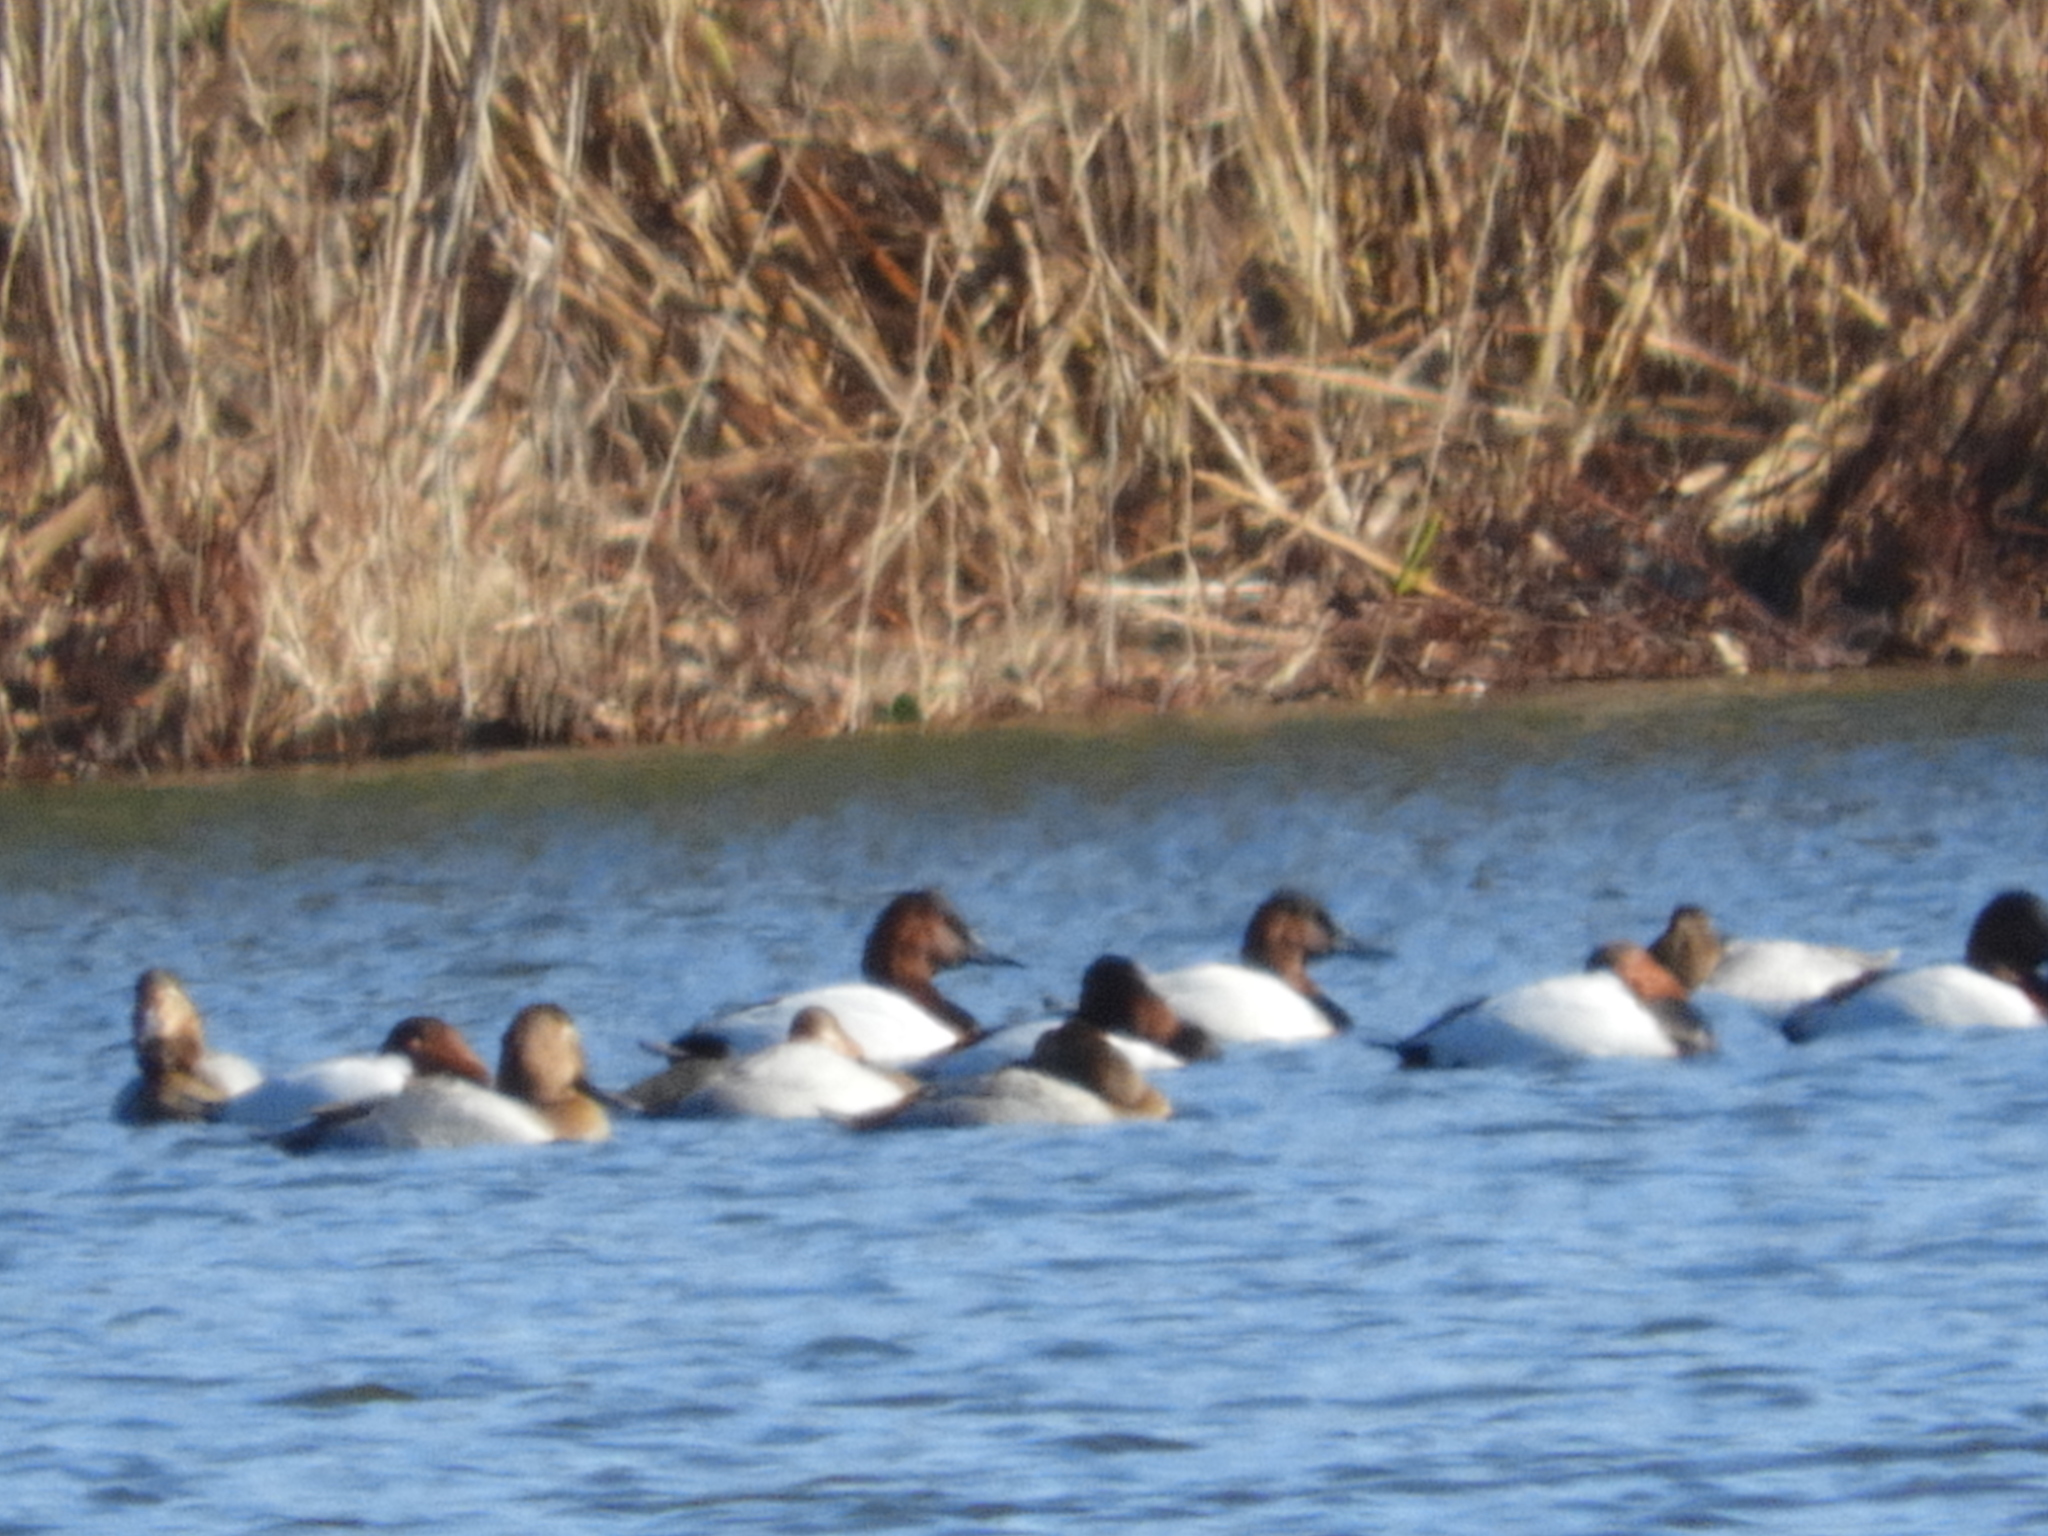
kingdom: Animalia
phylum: Chordata
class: Aves
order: Anseriformes
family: Anatidae
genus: Aythya
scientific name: Aythya valisineria
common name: Canvasback
